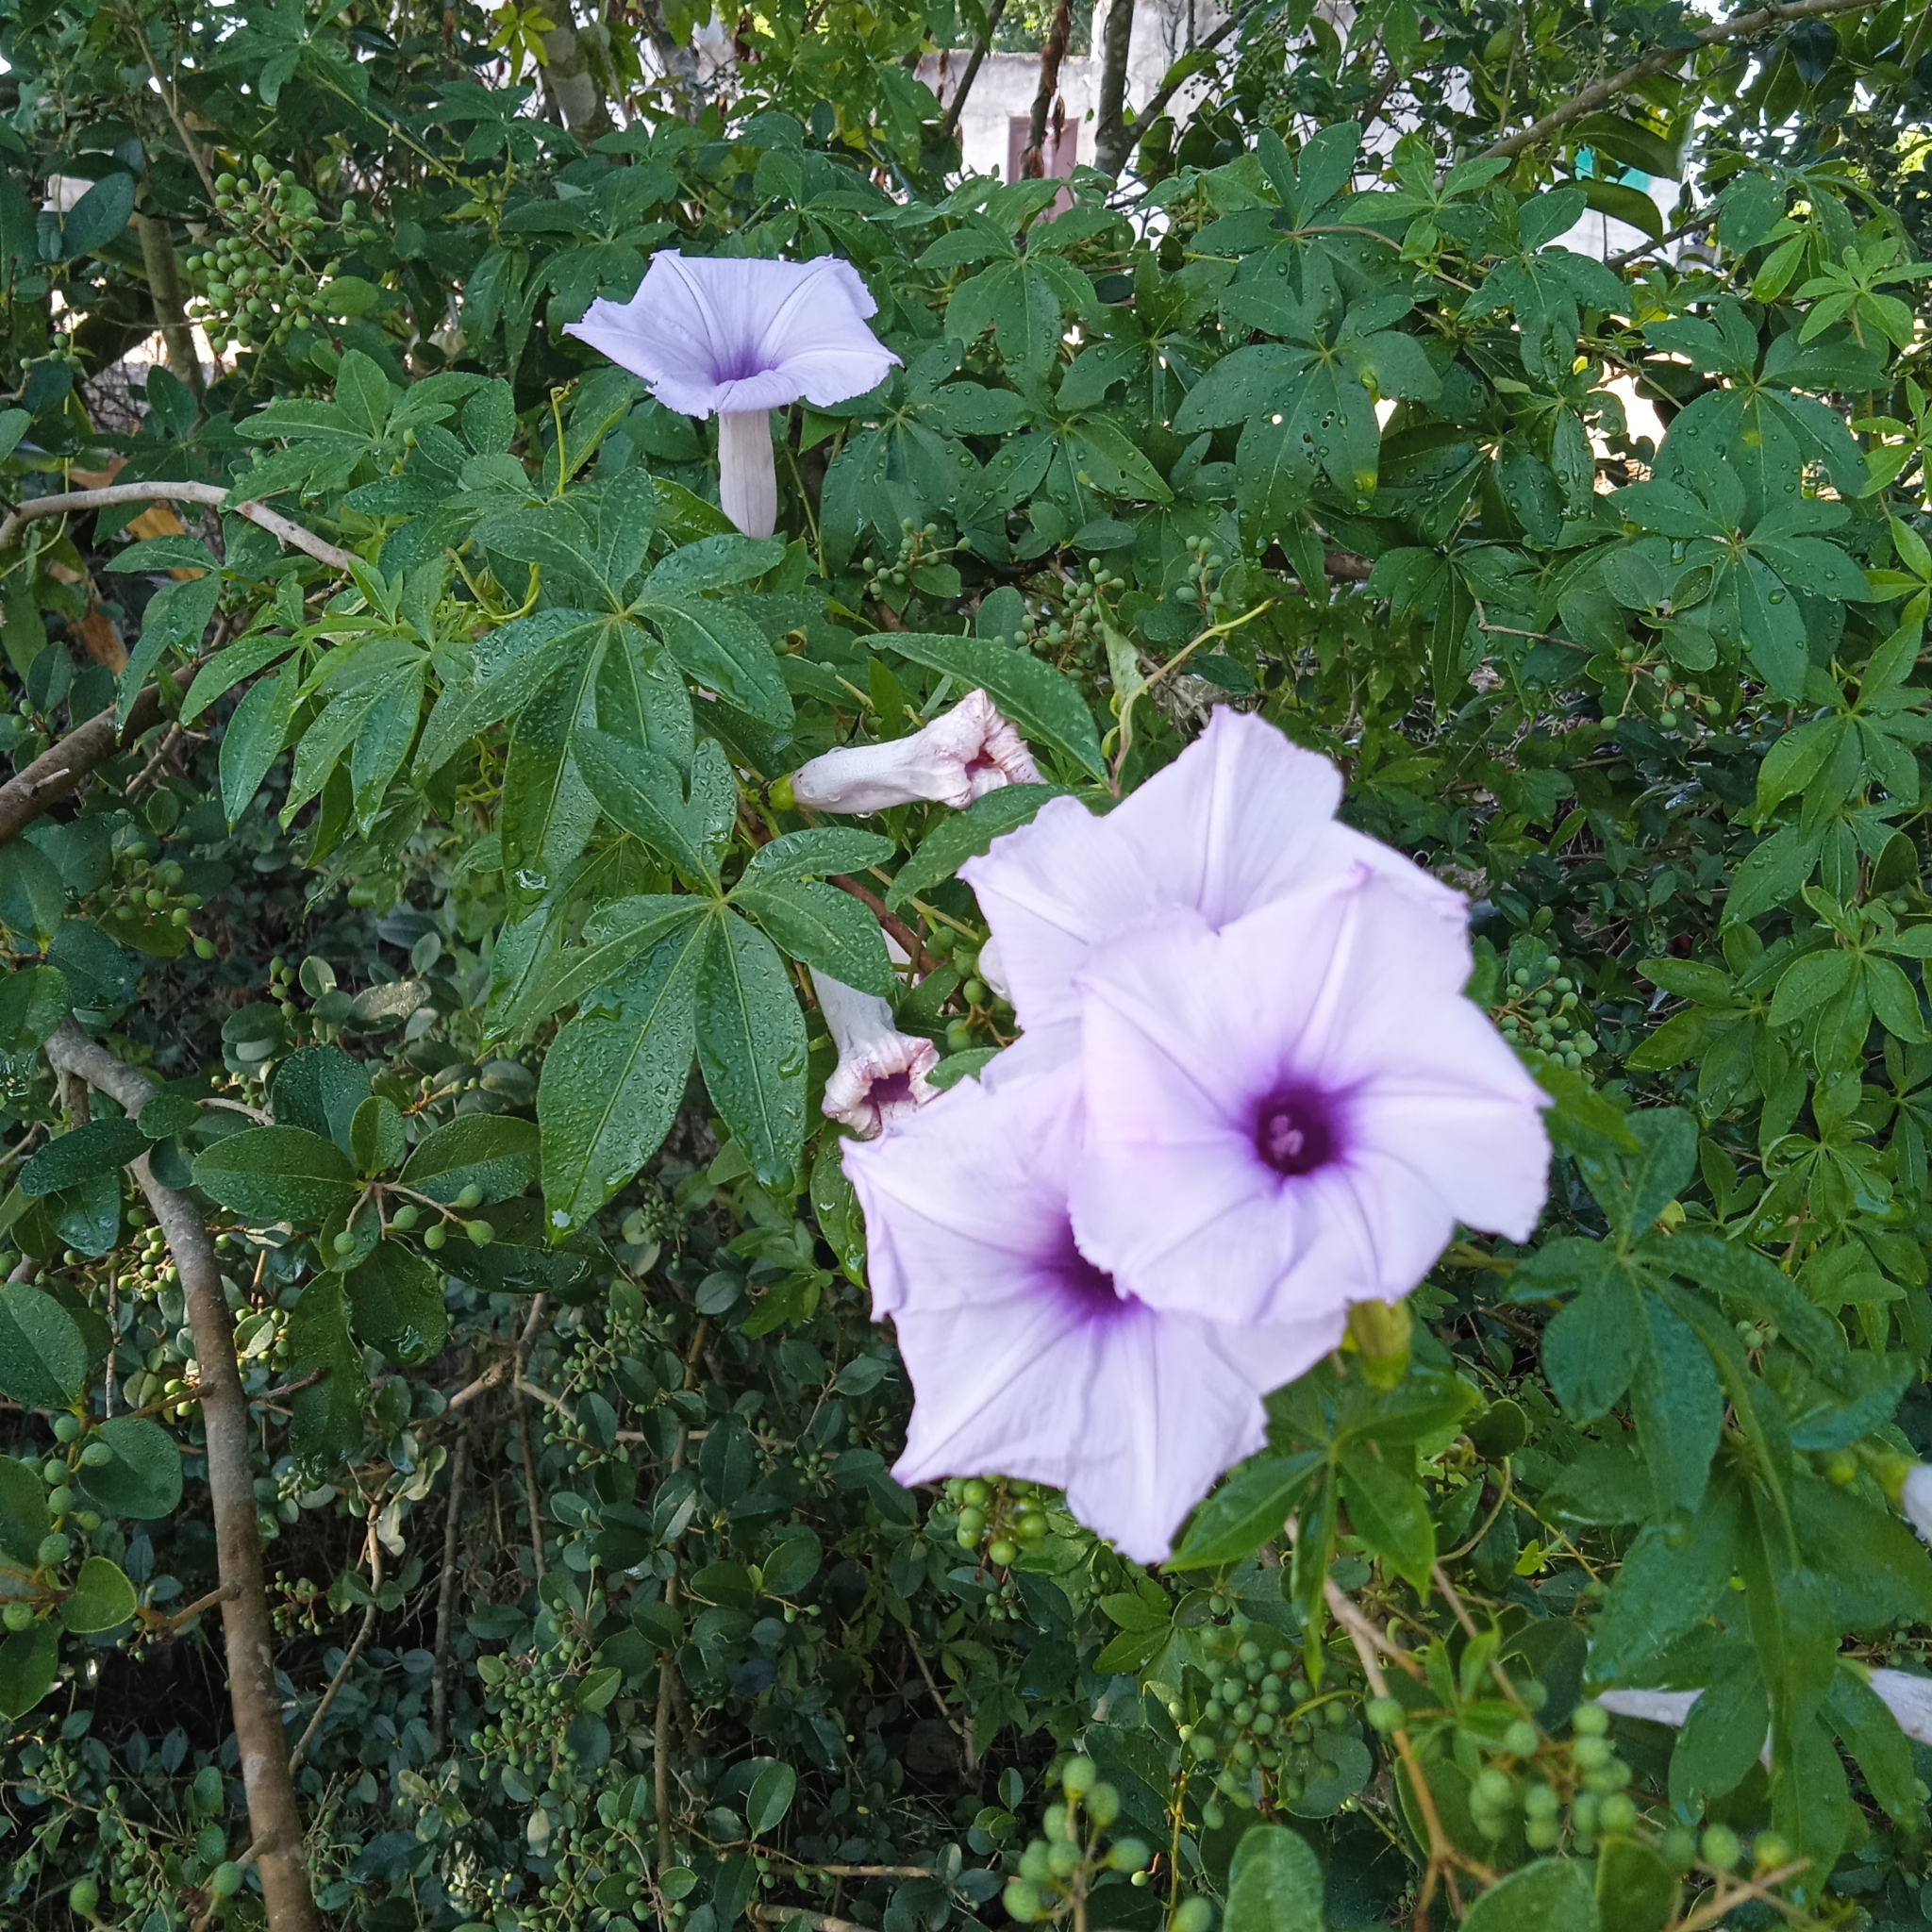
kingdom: Plantae
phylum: Tracheophyta
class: Magnoliopsida
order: Solanales
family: Convolvulaceae
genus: Ipomoea
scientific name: Ipomoea cairica
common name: Mile a minute vine
